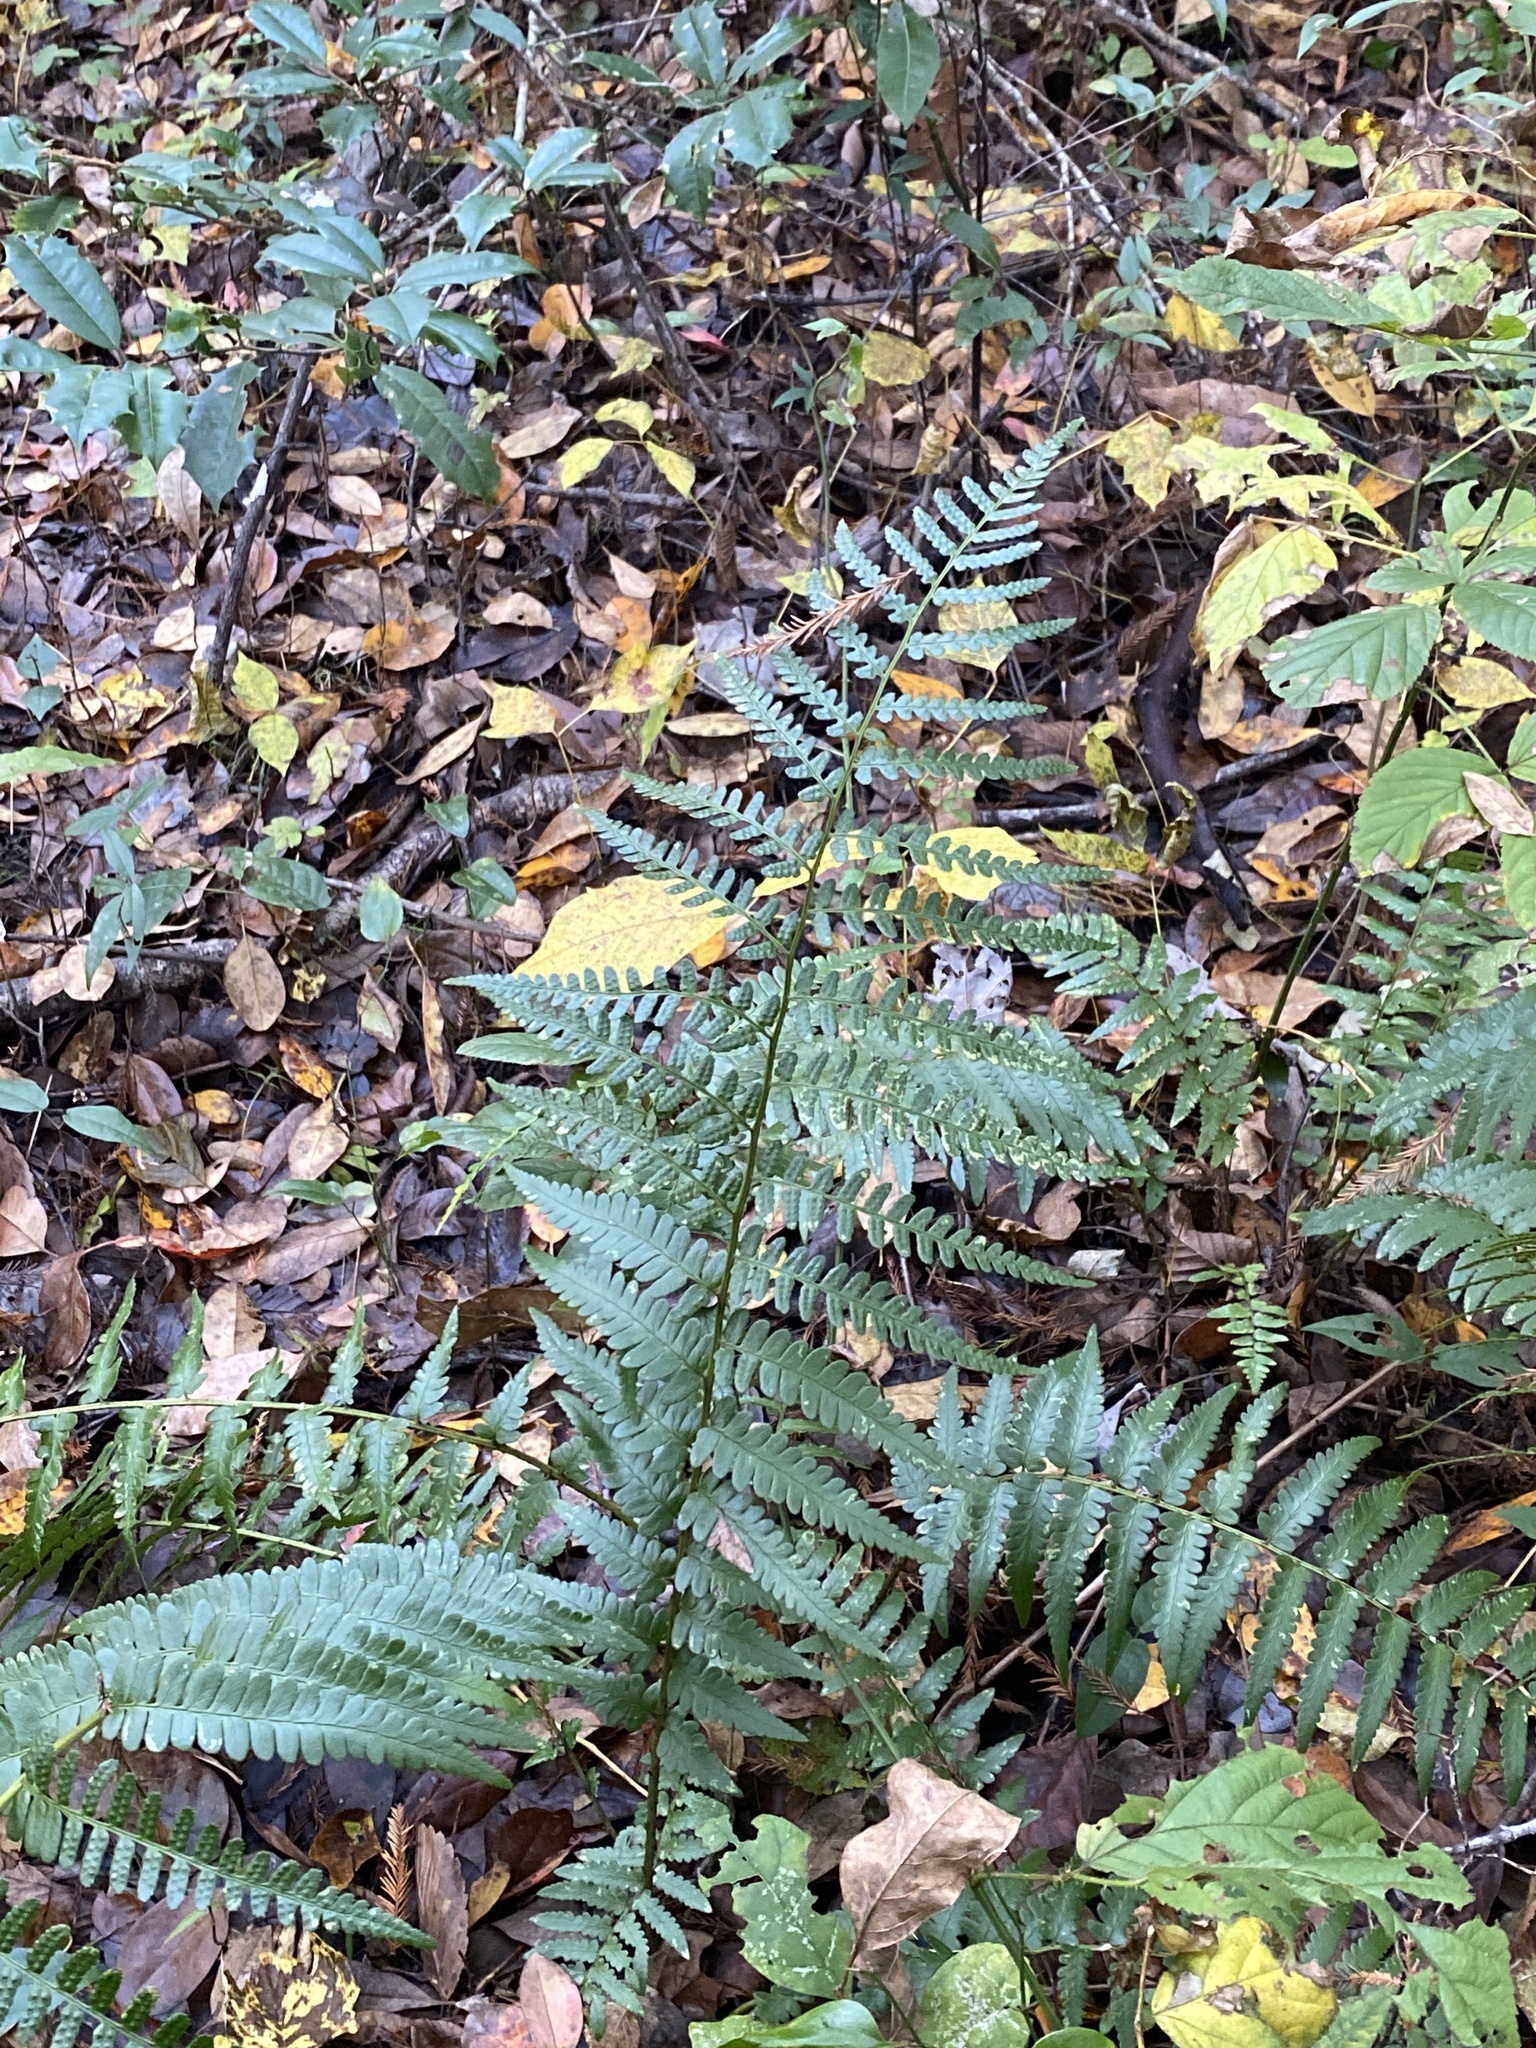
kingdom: Plantae
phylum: Tracheophyta
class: Polypodiopsida
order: Polypodiales
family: Dryopteridaceae
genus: Dryopteris
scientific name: Dryopteris ludoviciana
